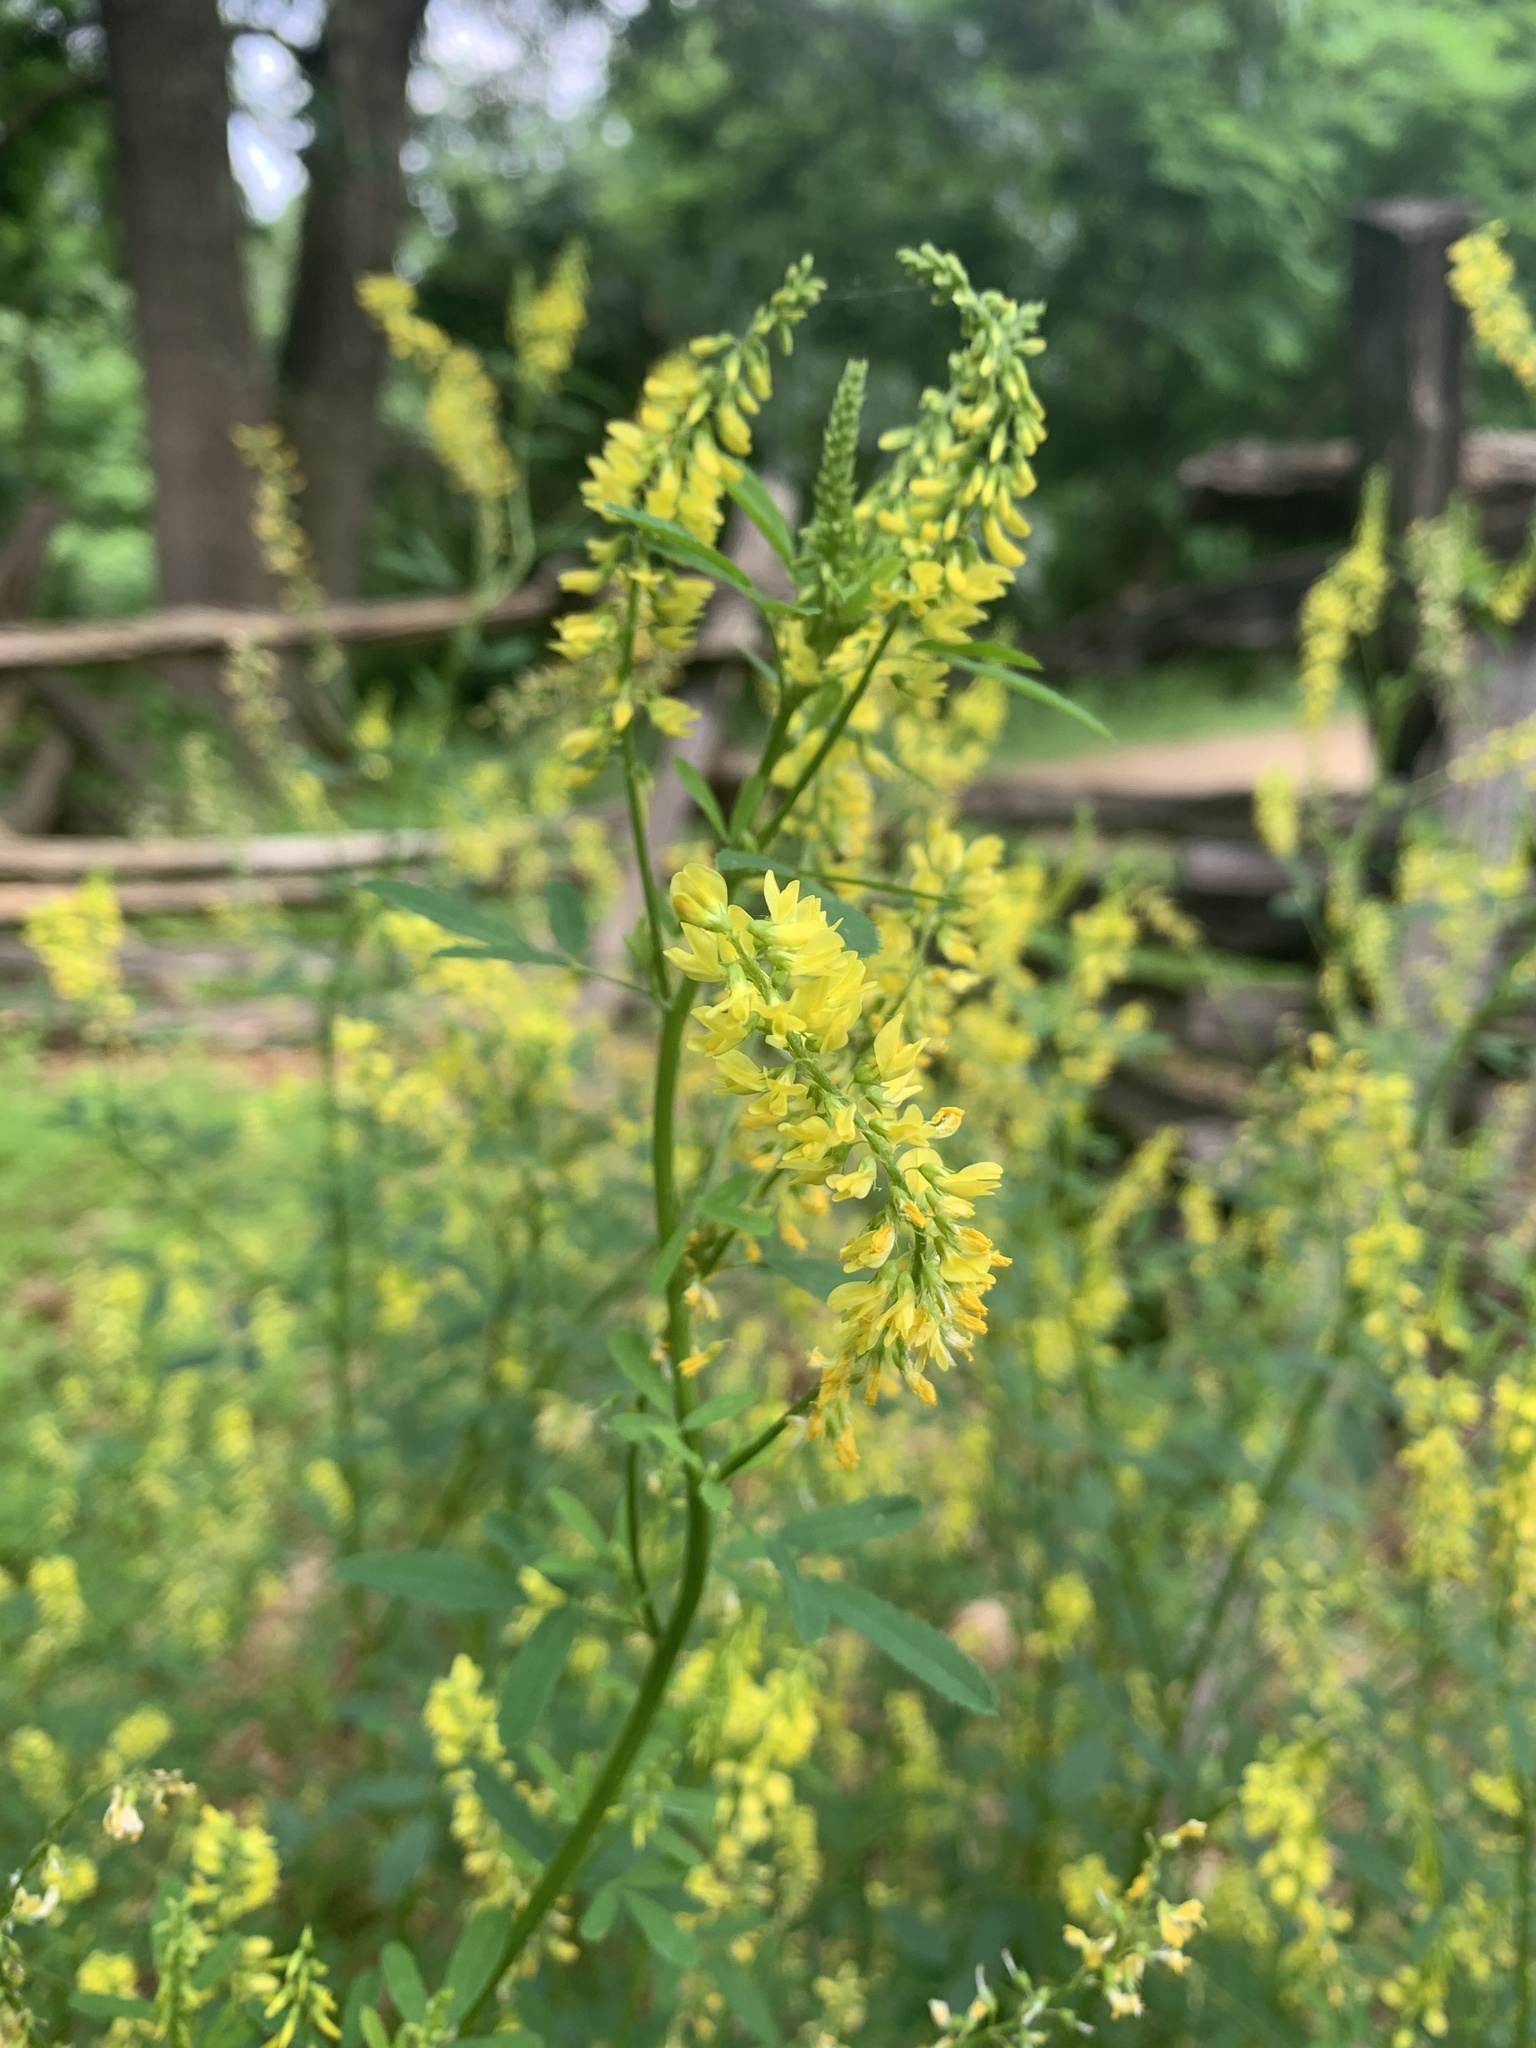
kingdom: Plantae
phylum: Tracheophyta
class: Magnoliopsida
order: Fabales
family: Fabaceae
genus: Melilotus
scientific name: Melilotus officinalis
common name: Sweetclover
